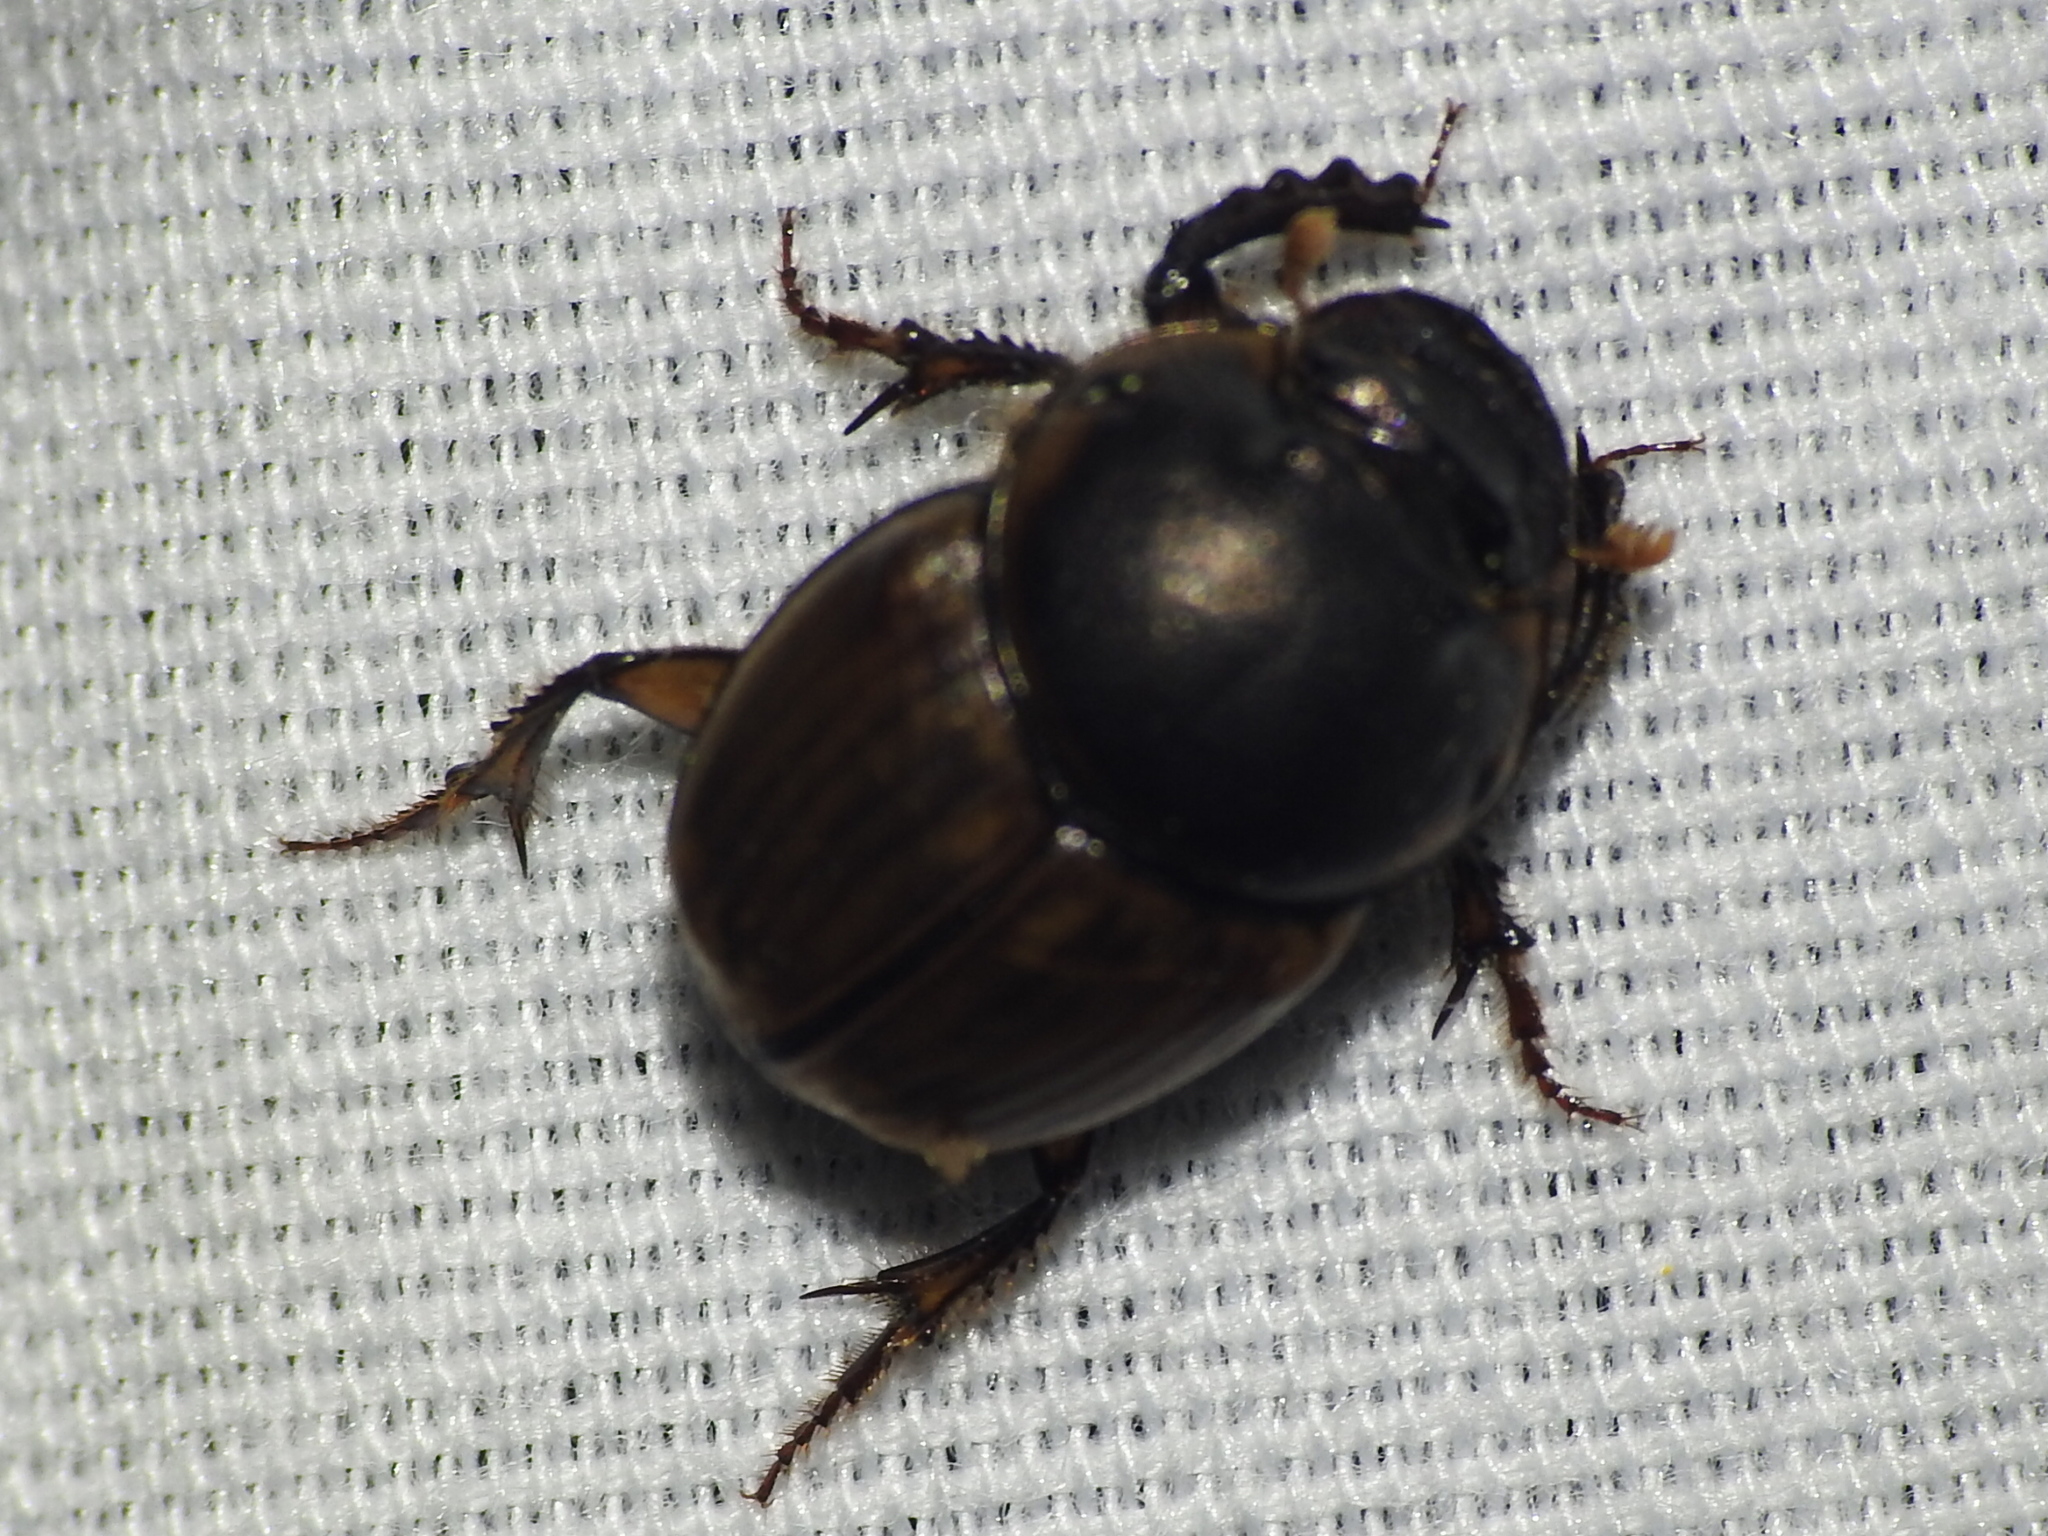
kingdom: Animalia
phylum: Arthropoda
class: Insecta
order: Coleoptera
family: Scarabaeidae
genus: Digitonthophagus
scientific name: Digitonthophagus gazella
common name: Brown dung beetle
